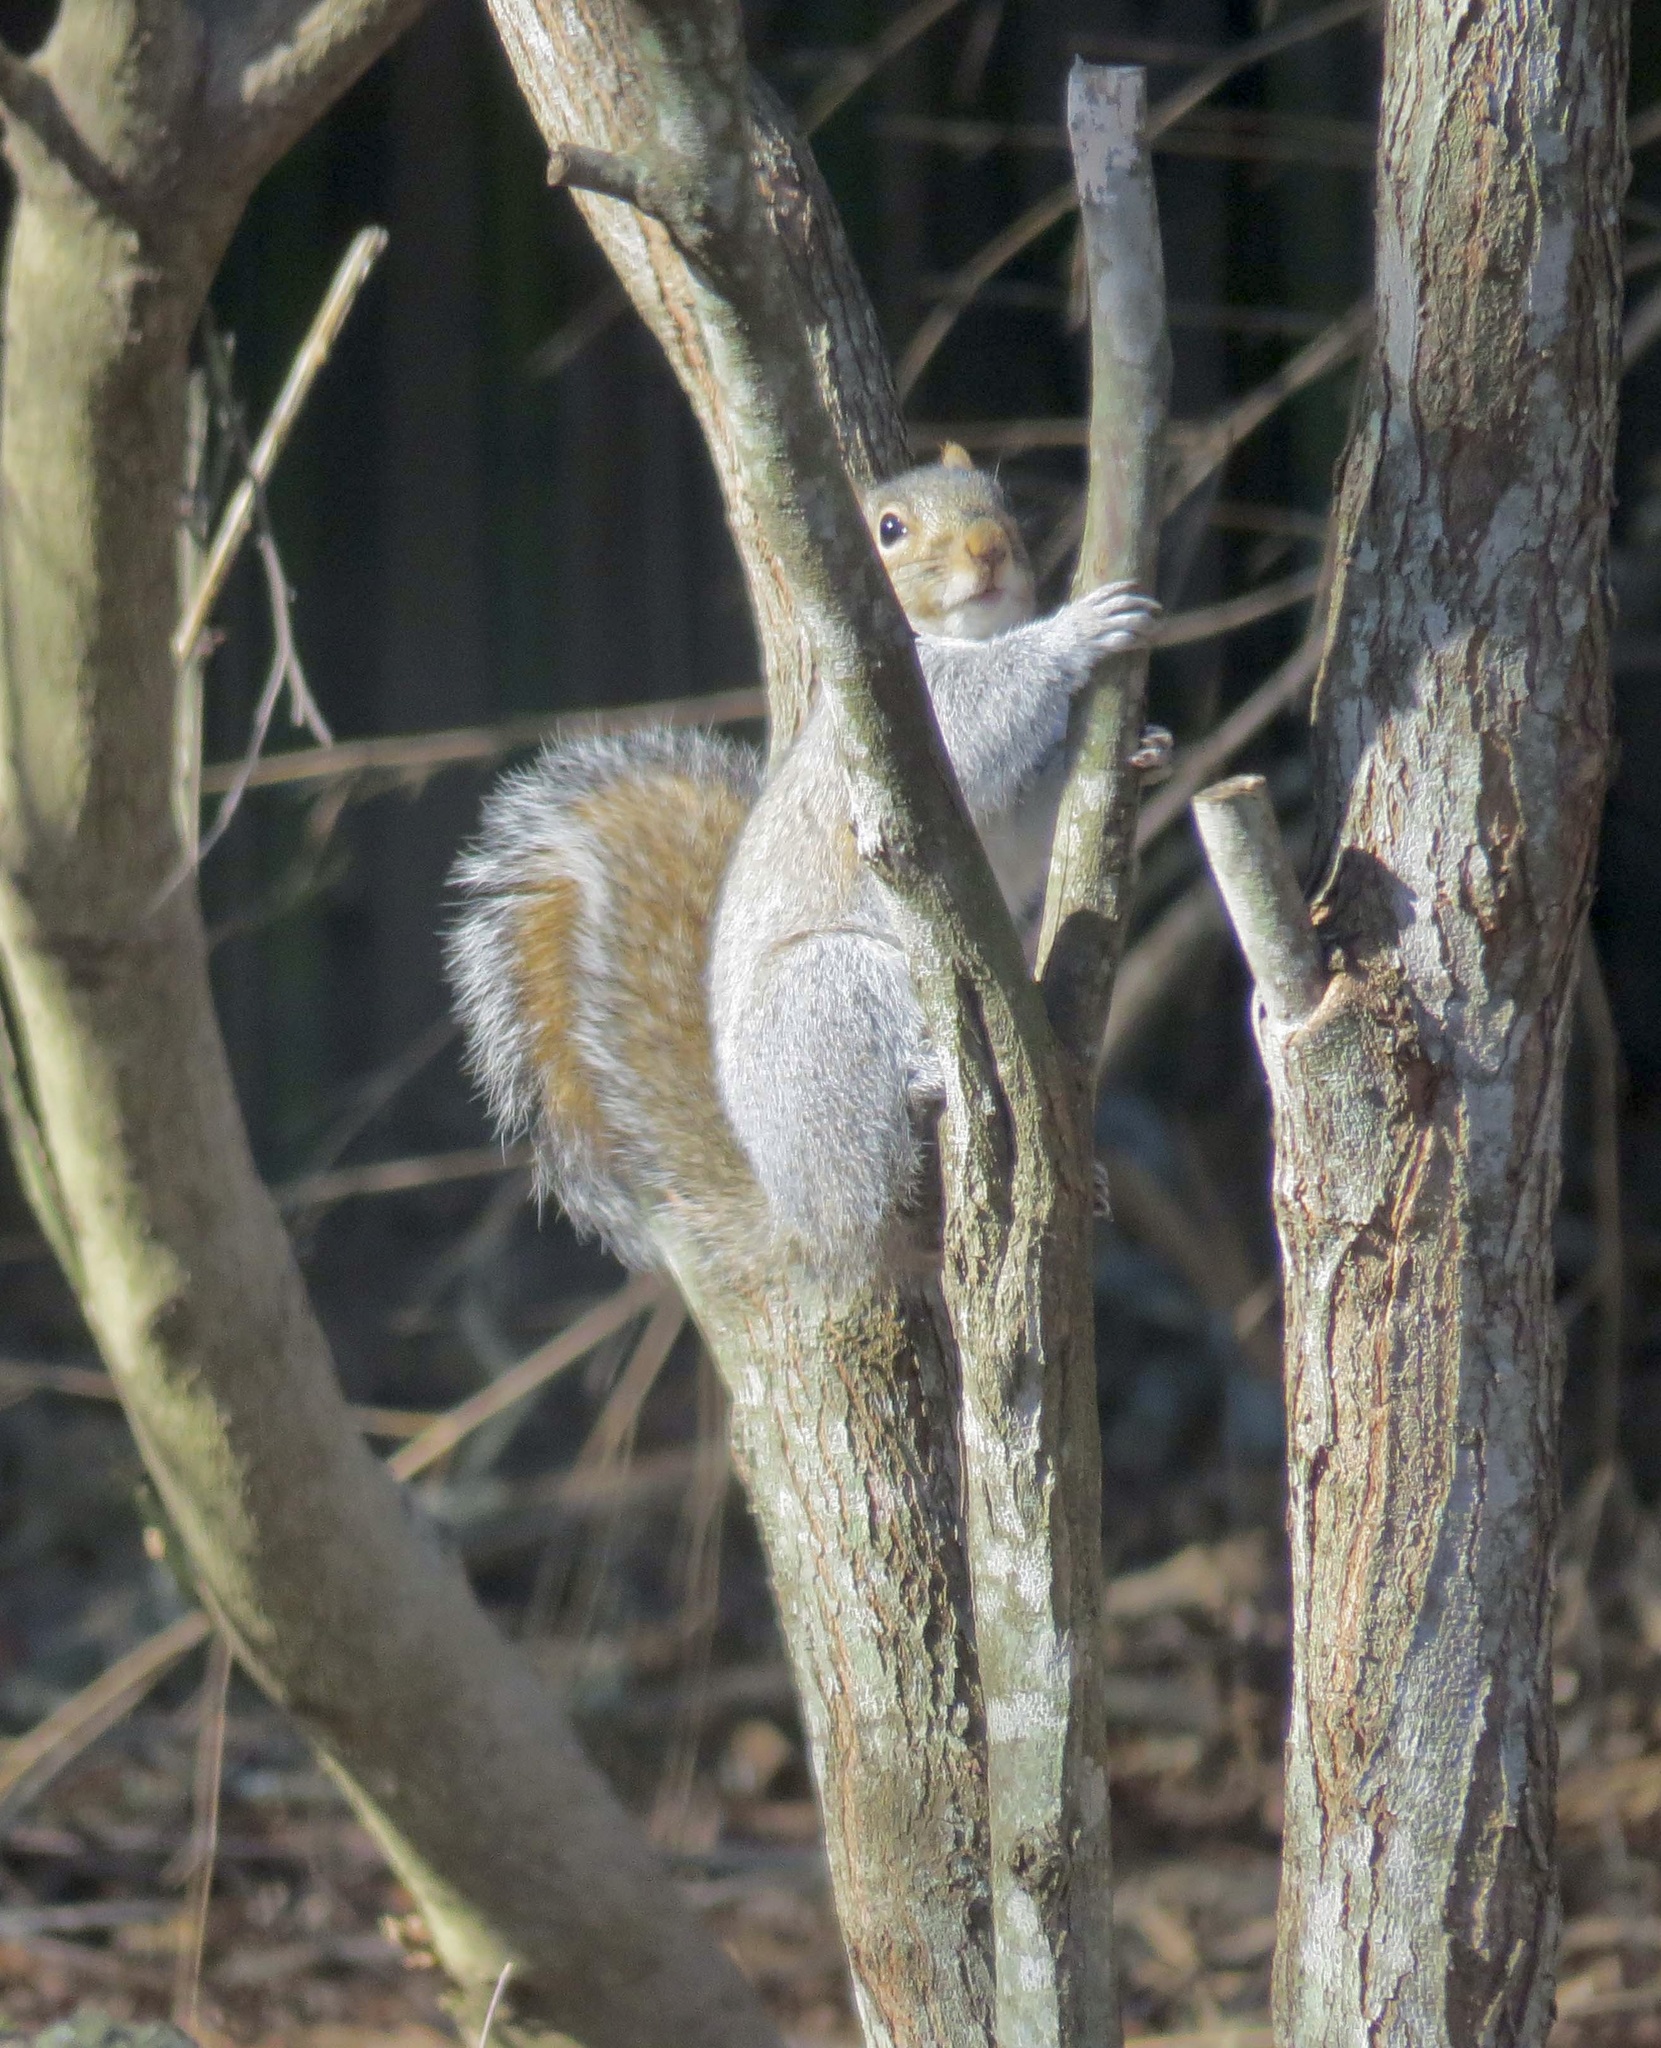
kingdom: Animalia
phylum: Chordata
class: Mammalia
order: Rodentia
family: Sciuridae
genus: Sciurus
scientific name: Sciurus carolinensis
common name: Eastern gray squirrel
